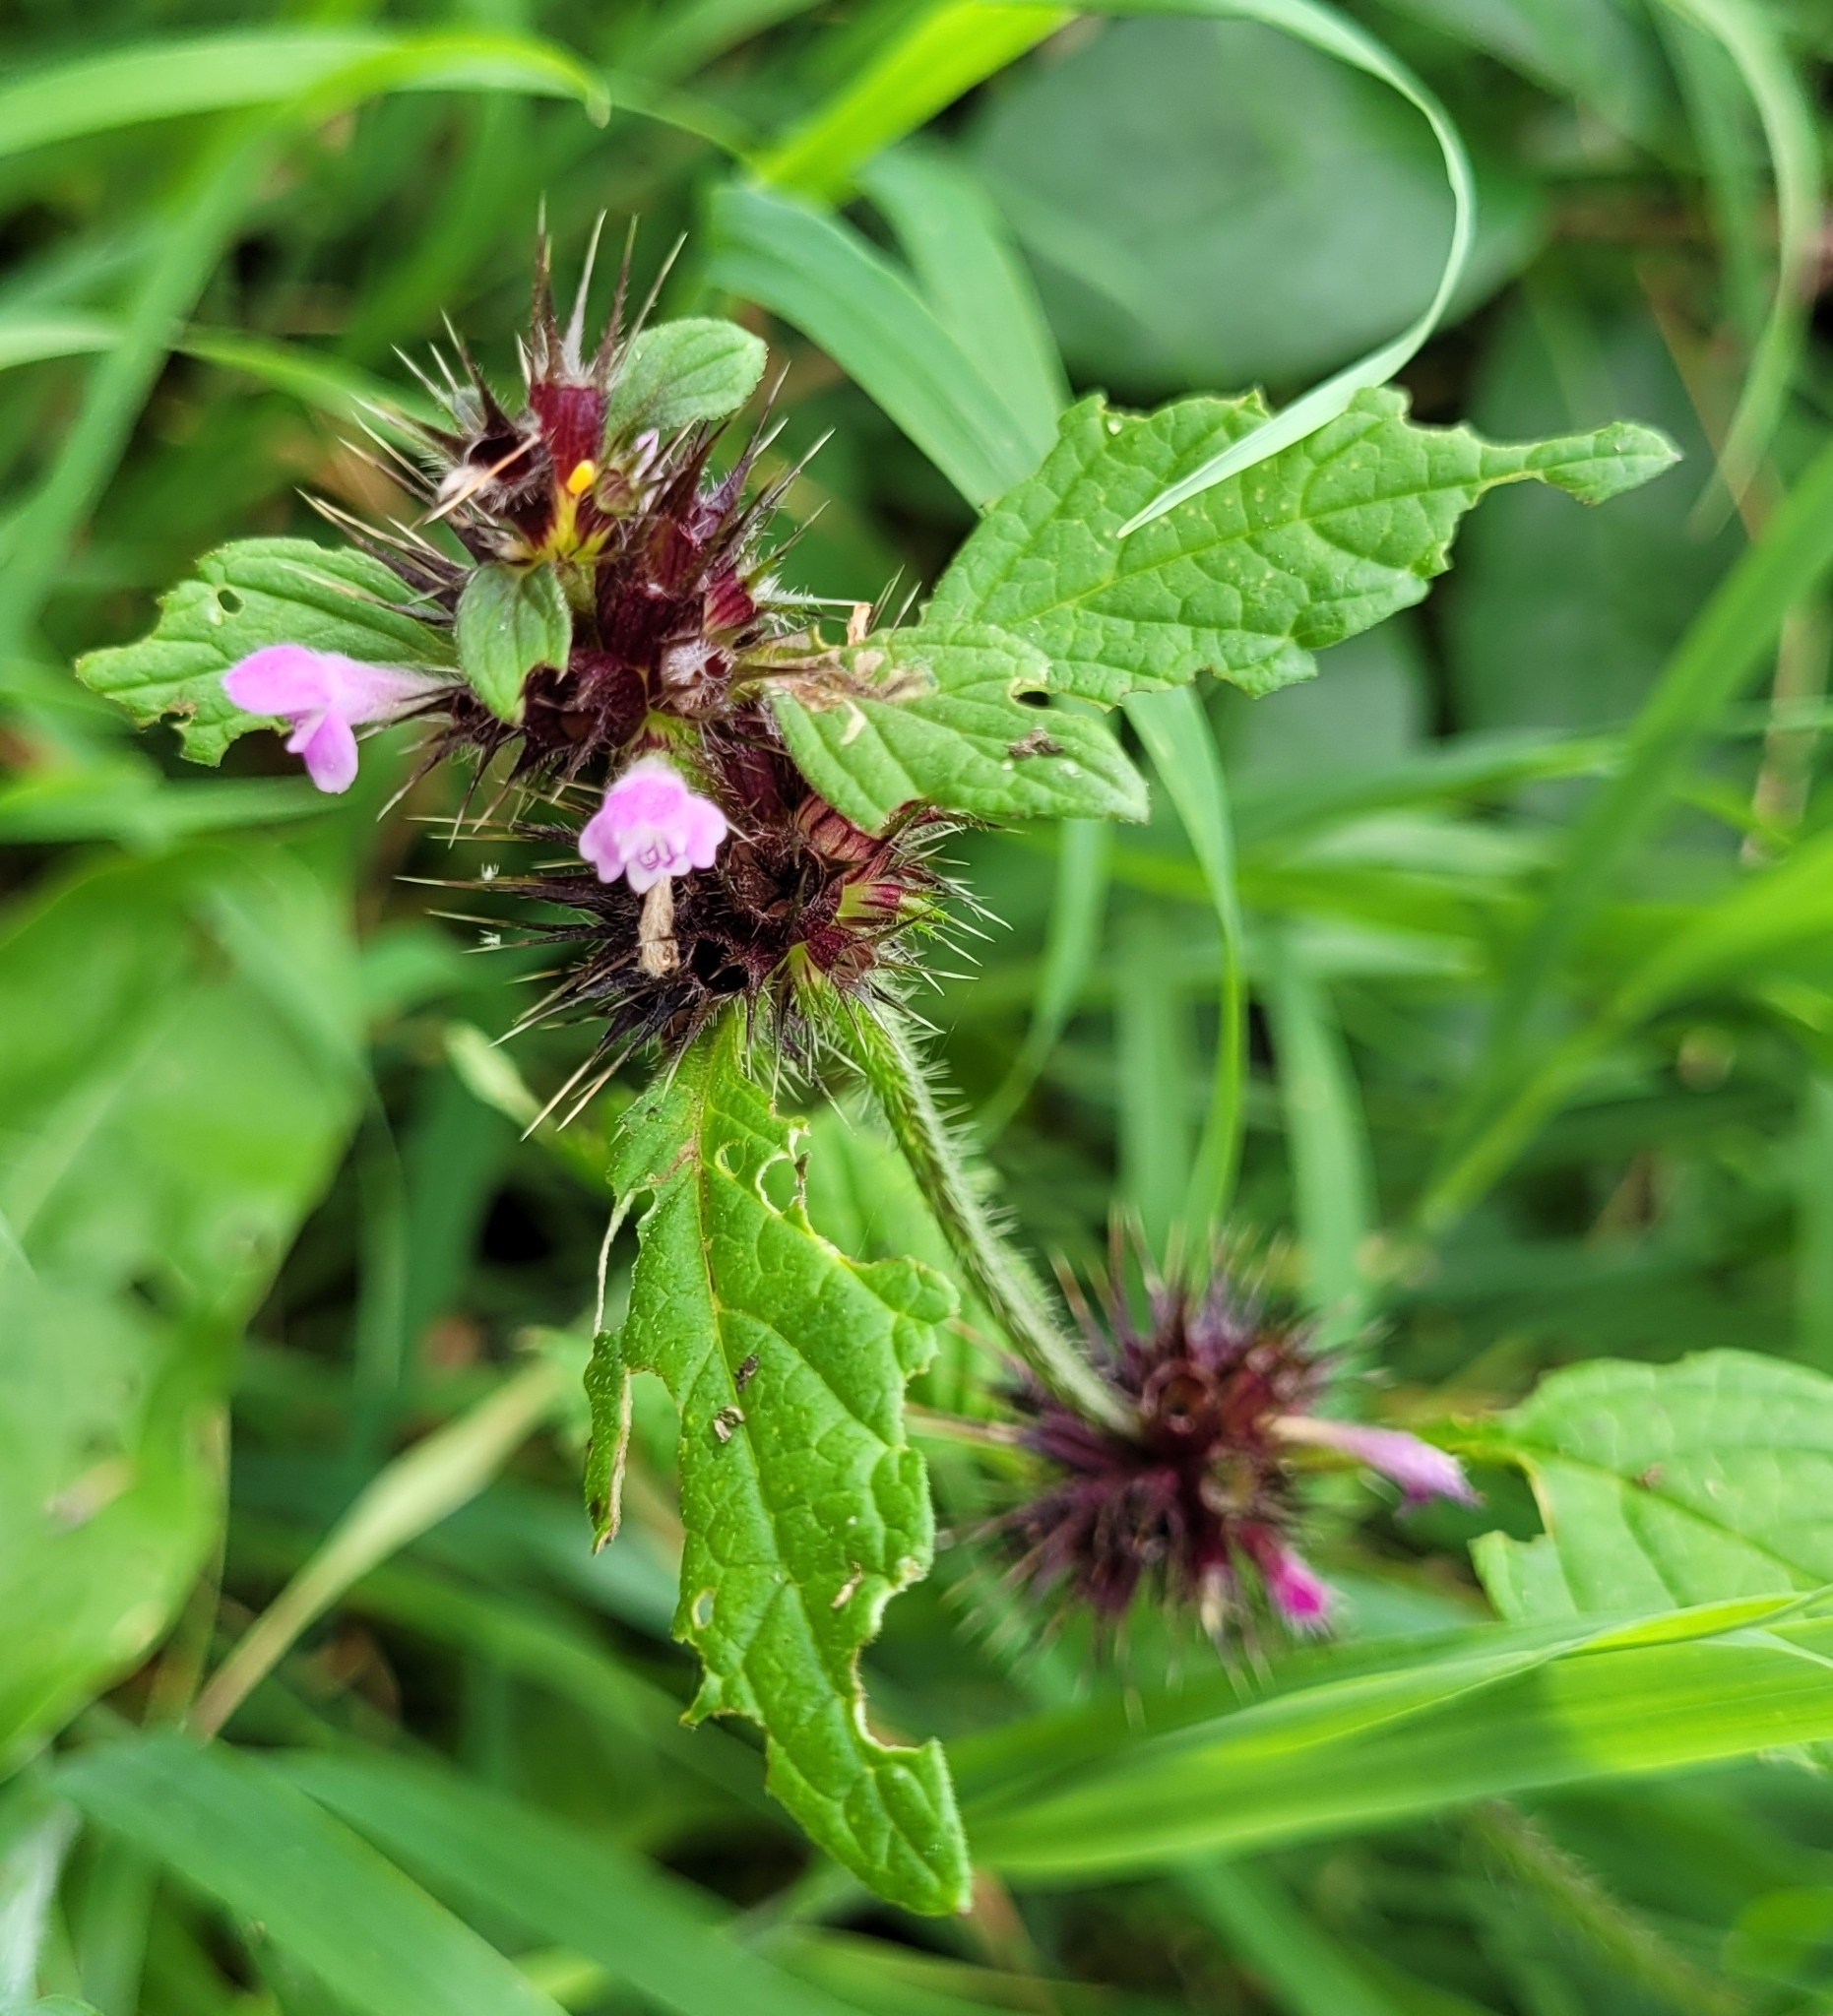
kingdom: Plantae
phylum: Tracheophyta
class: Magnoliopsida
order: Lamiales
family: Lamiaceae
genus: Galeopsis
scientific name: Galeopsis tetrahit
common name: Common hemp-nettle
